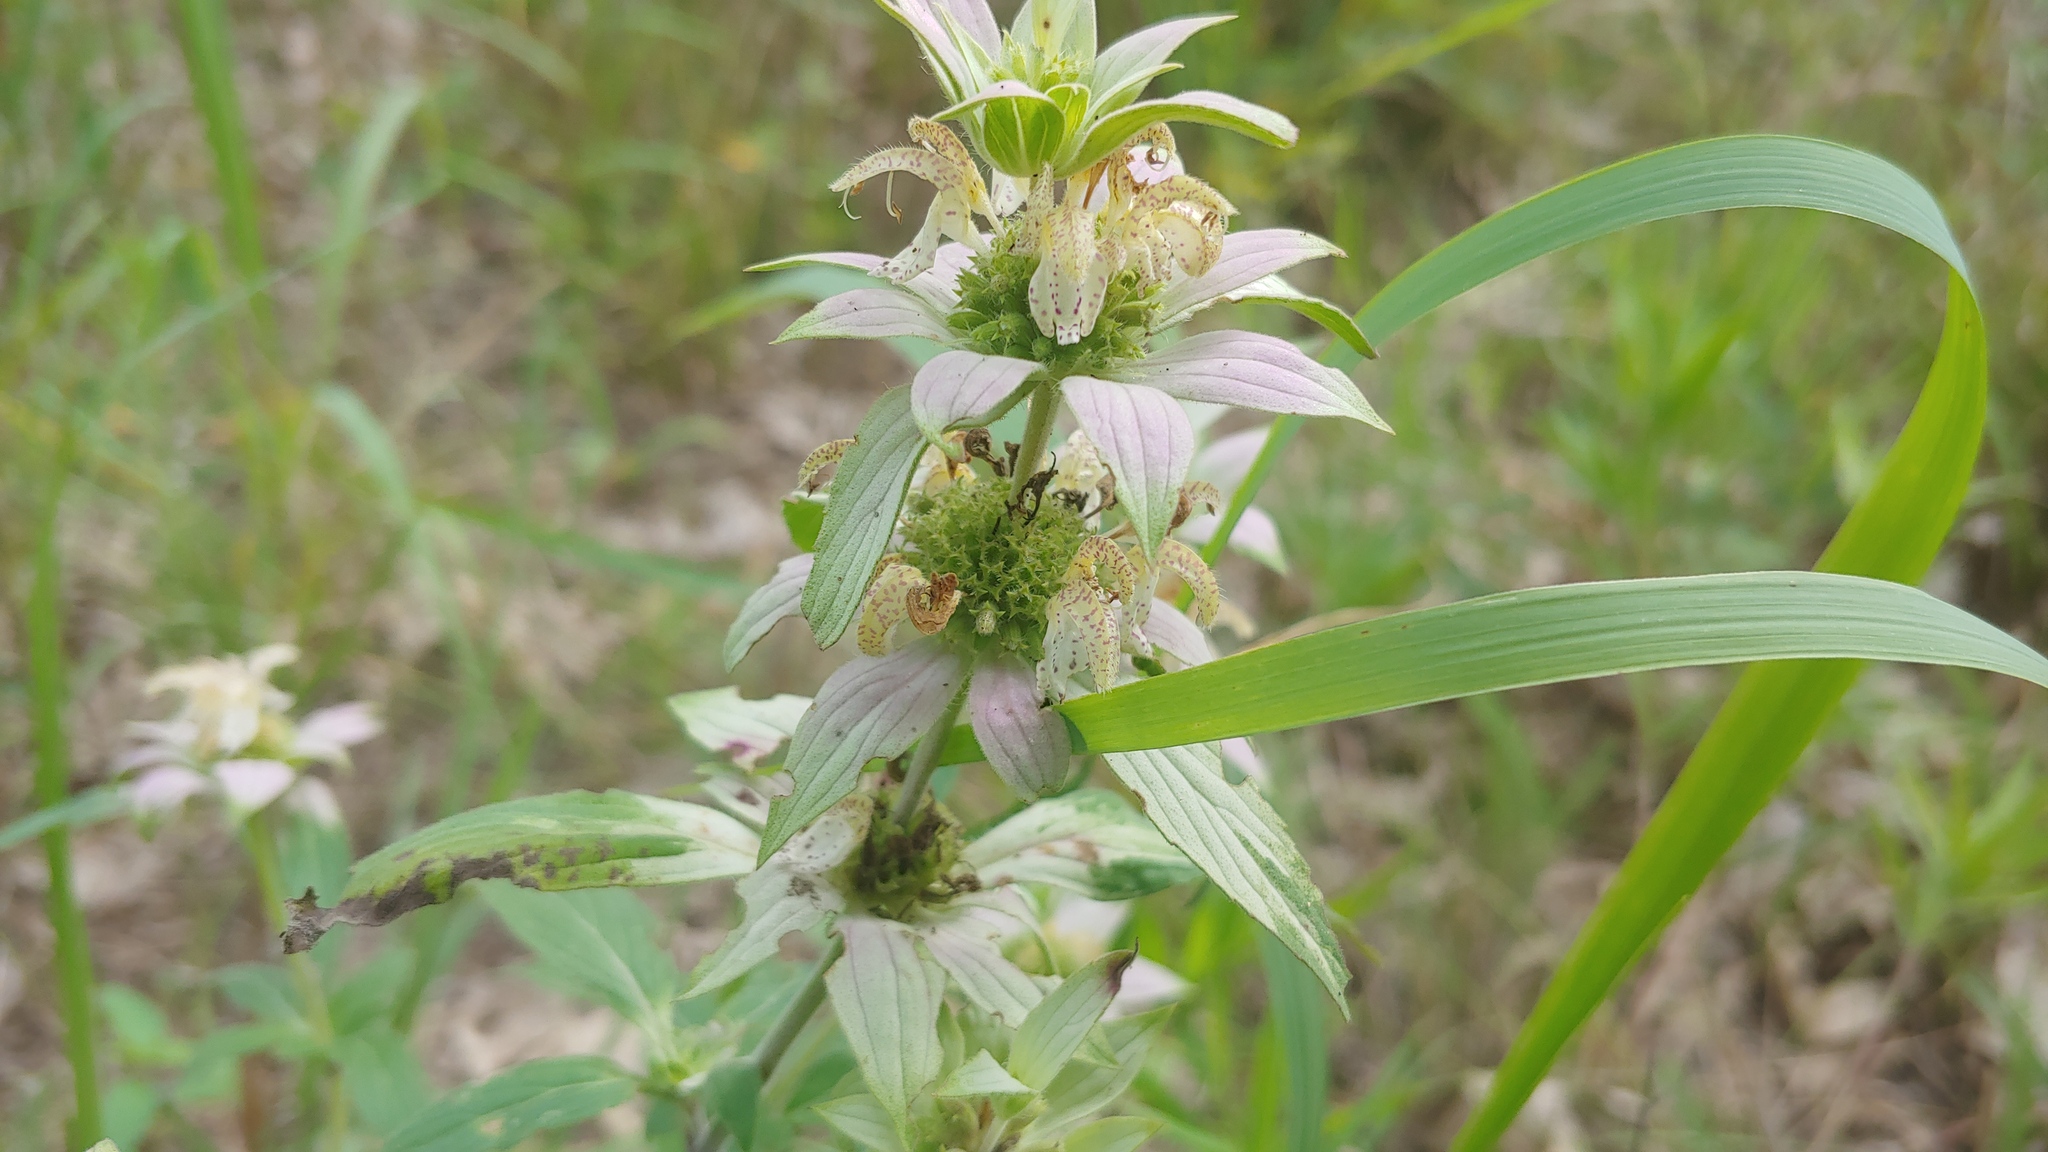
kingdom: Plantae
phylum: Tracheophyta
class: Magnoliopsida
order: Lamiales
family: Lamiaceae
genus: Monarda
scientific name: Monarda punctata
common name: Dotted monarda
